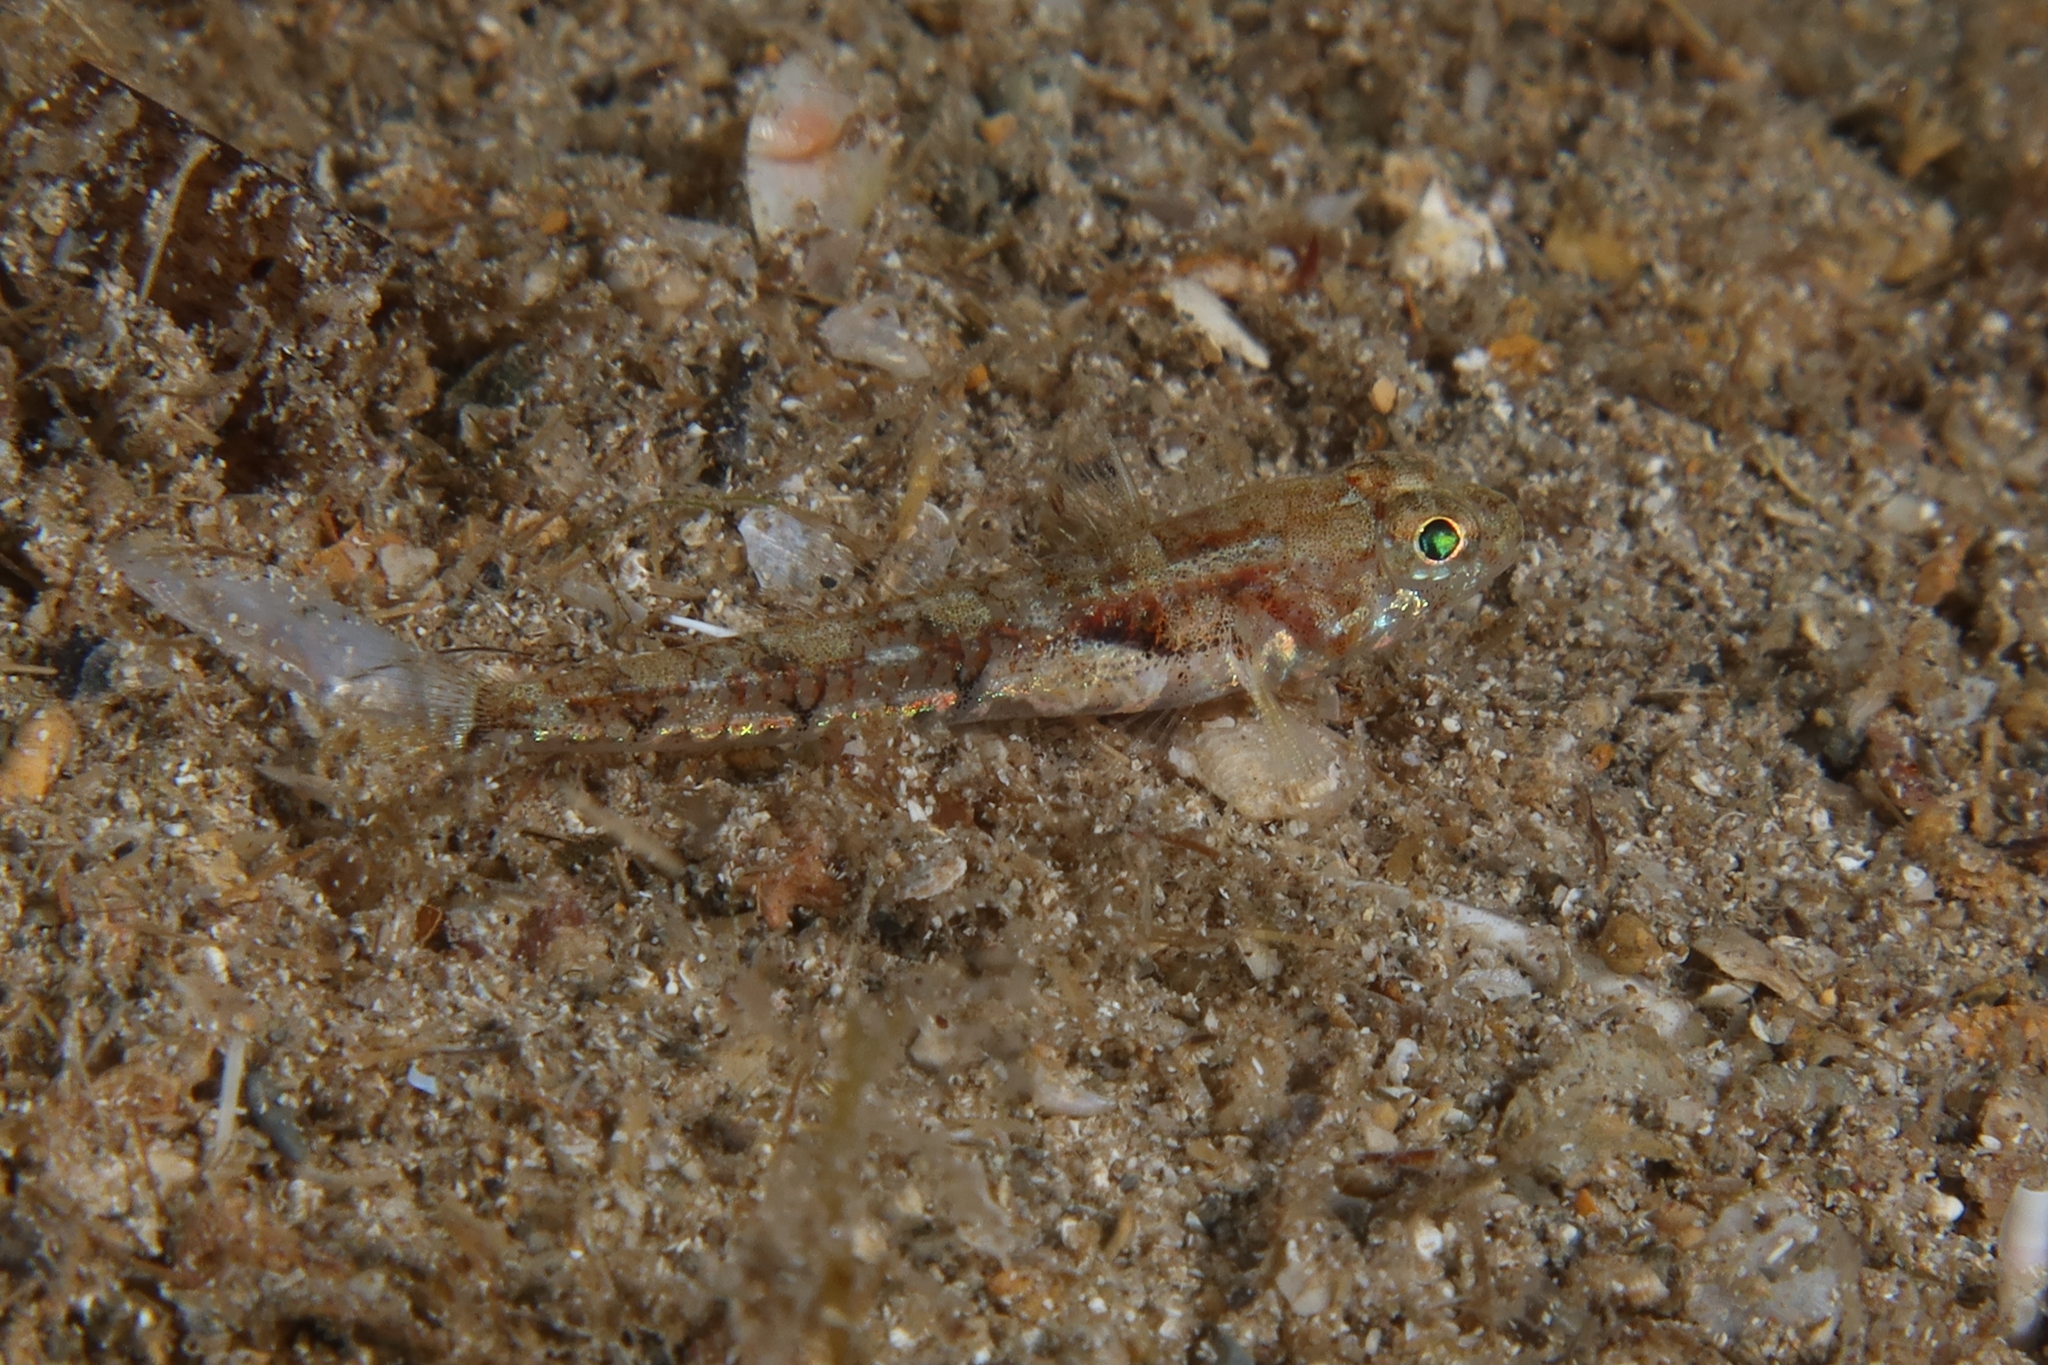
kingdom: Animalia
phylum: Chordata
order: Perciformes
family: Gobiidae
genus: Buenia
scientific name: Buenia massutii
